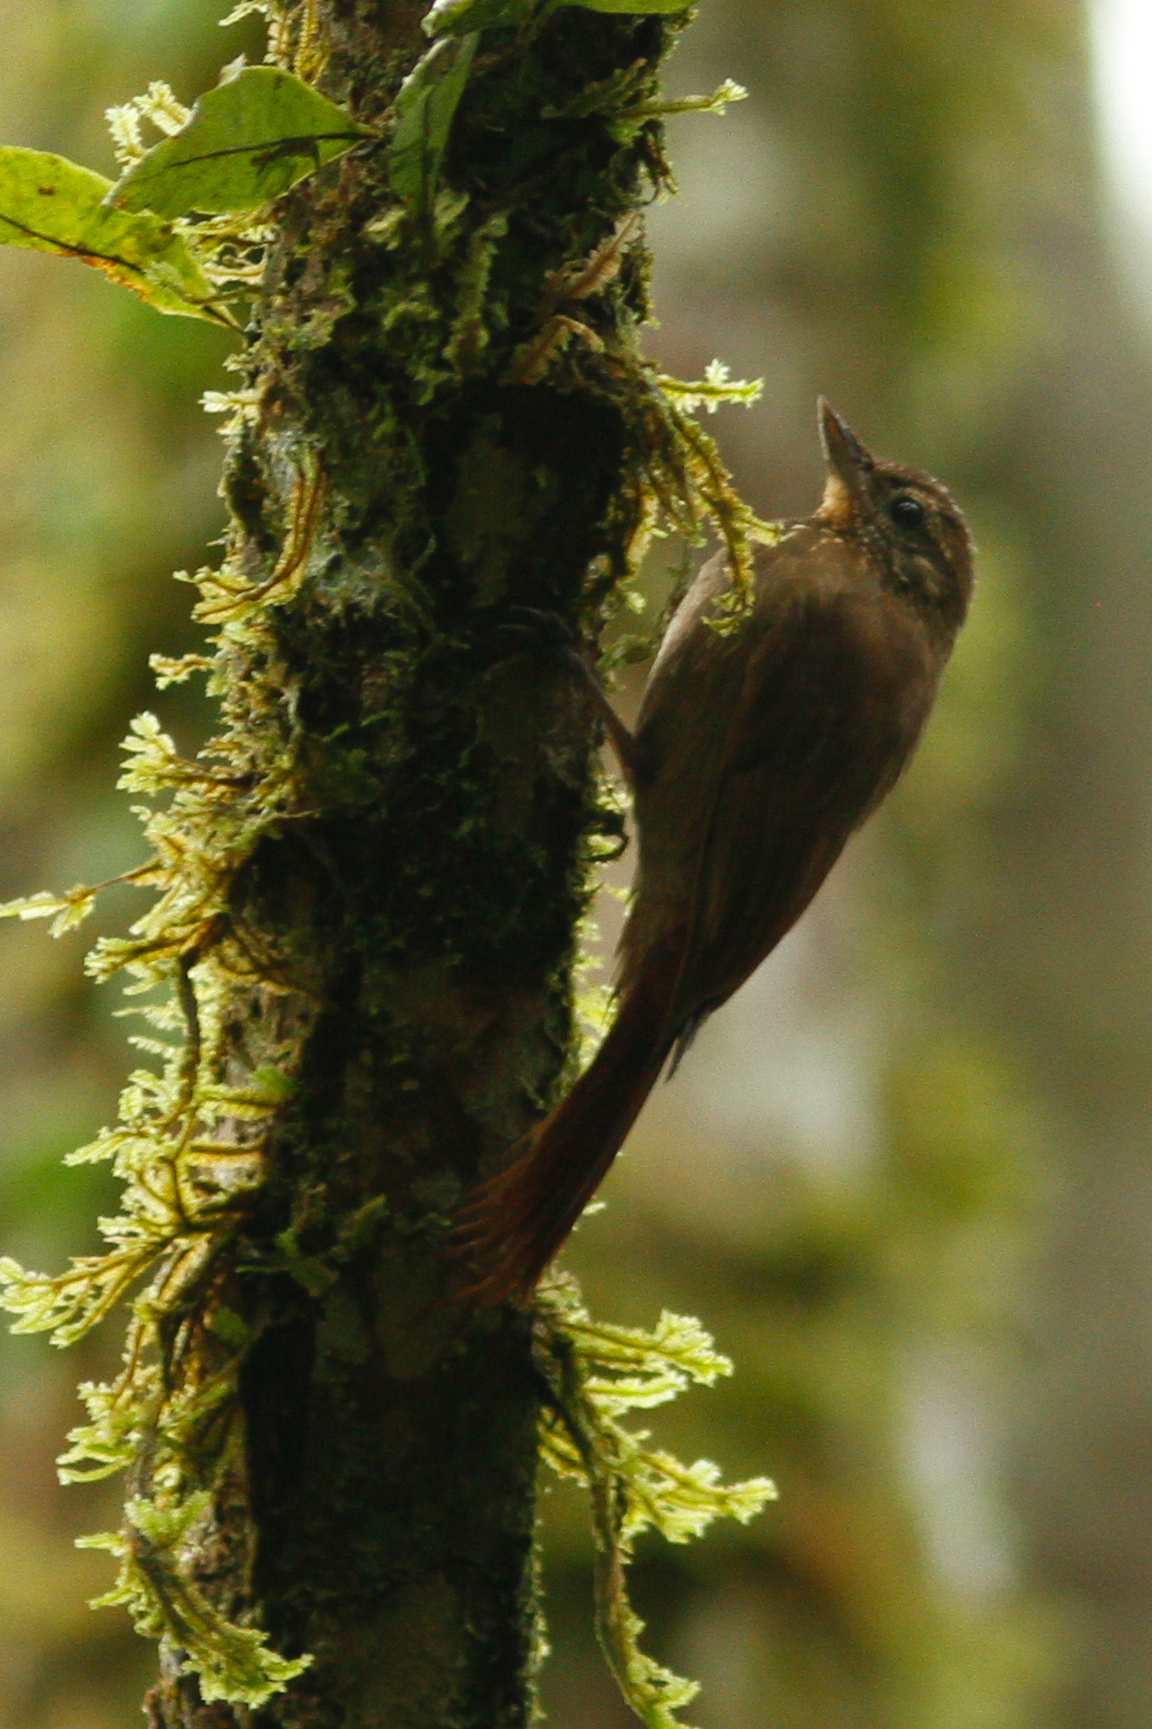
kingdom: Animalia
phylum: Chordata
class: Aves
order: Passeriformes
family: Furnariidae
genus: Glyphorynchus
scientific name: Glyphorynchus spirurus
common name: Wedge-billed woodcreeper
